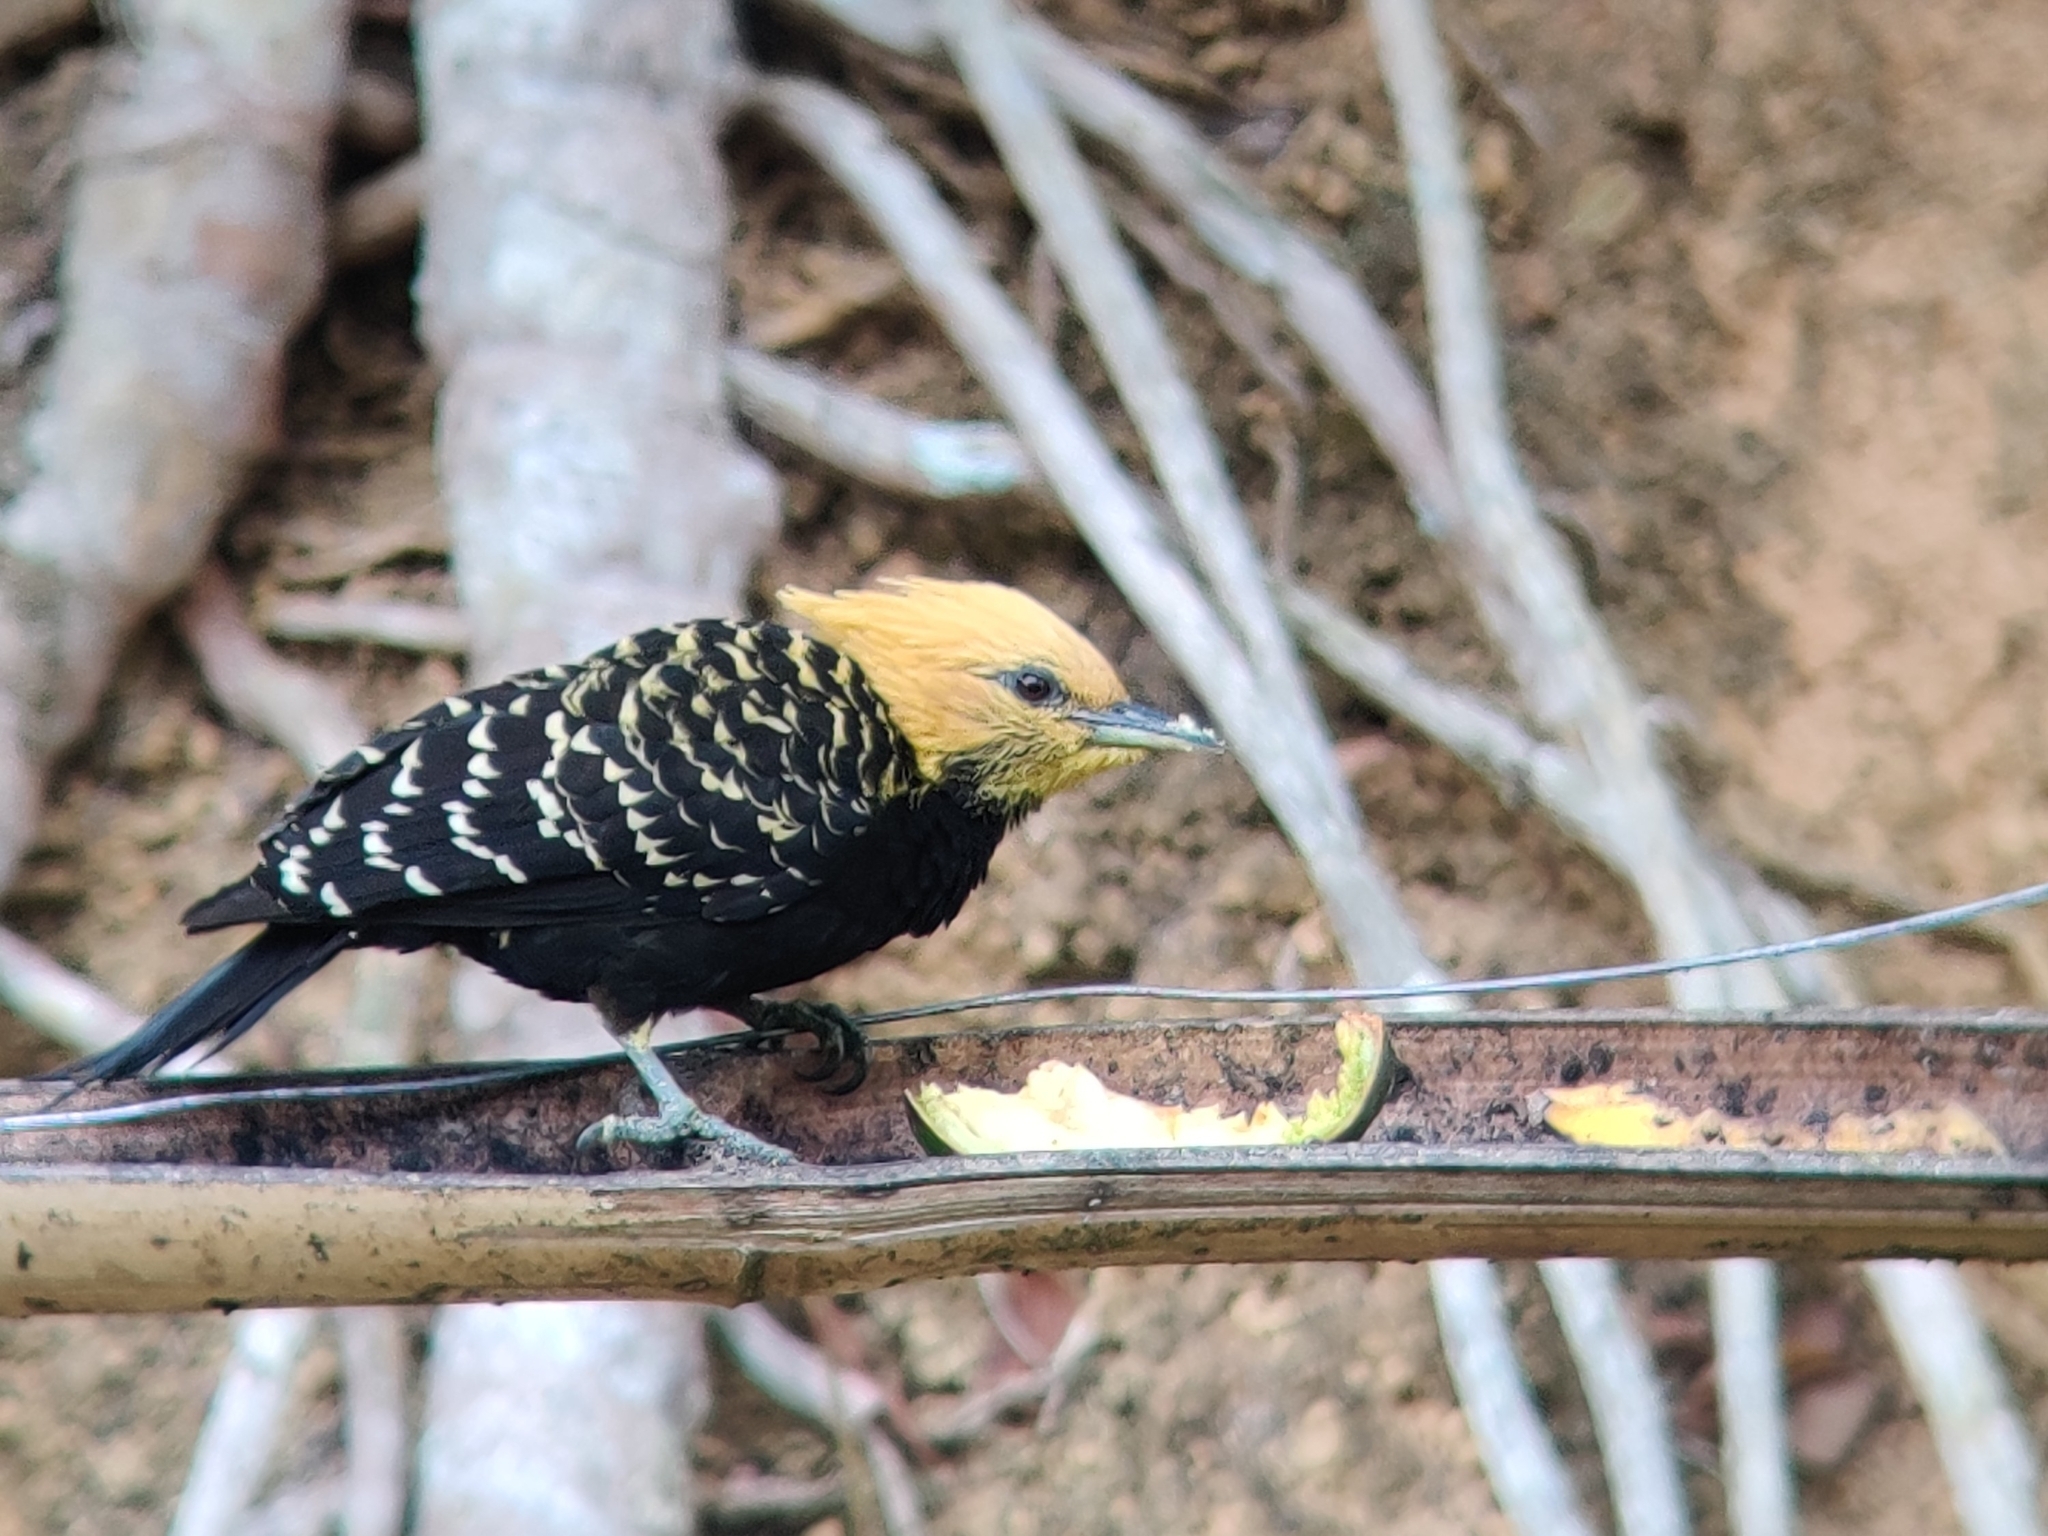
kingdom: Animalia
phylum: Chordata
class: Aves
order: Piciformes
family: Picidae
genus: Celeus
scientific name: Celeus flavescens
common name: Blond-crested woodpecker
